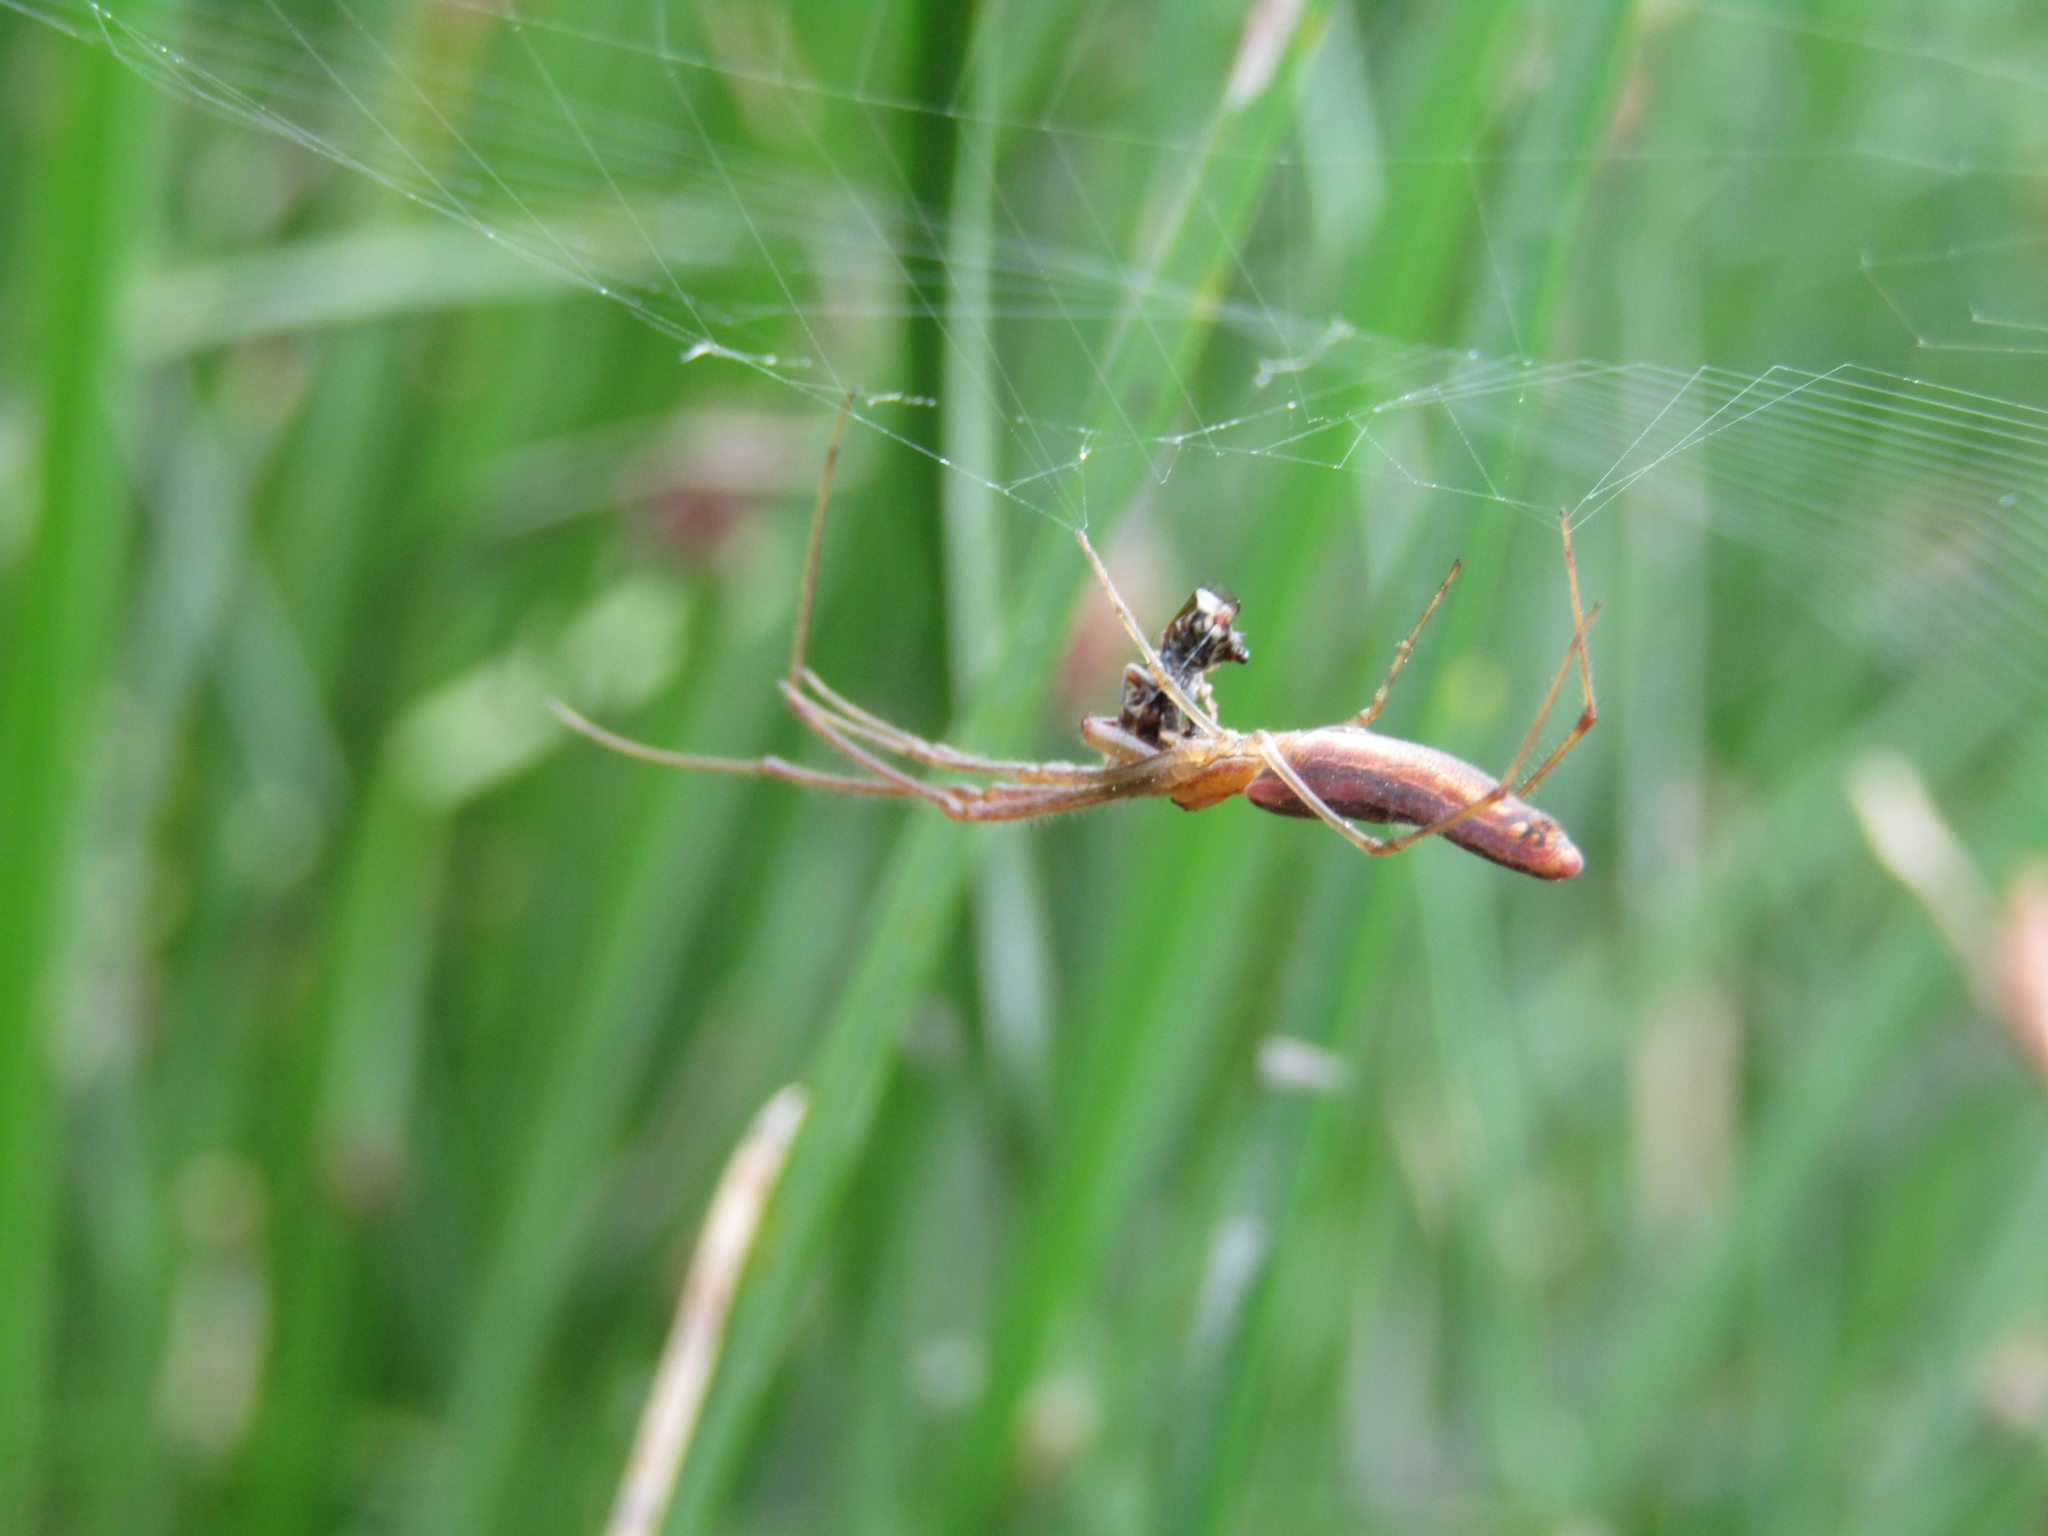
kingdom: Animalia
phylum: Arthropoda
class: Arachnida
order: Araneae
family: Tetragnathidae
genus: Tetragnatha
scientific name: Tetragnatha
